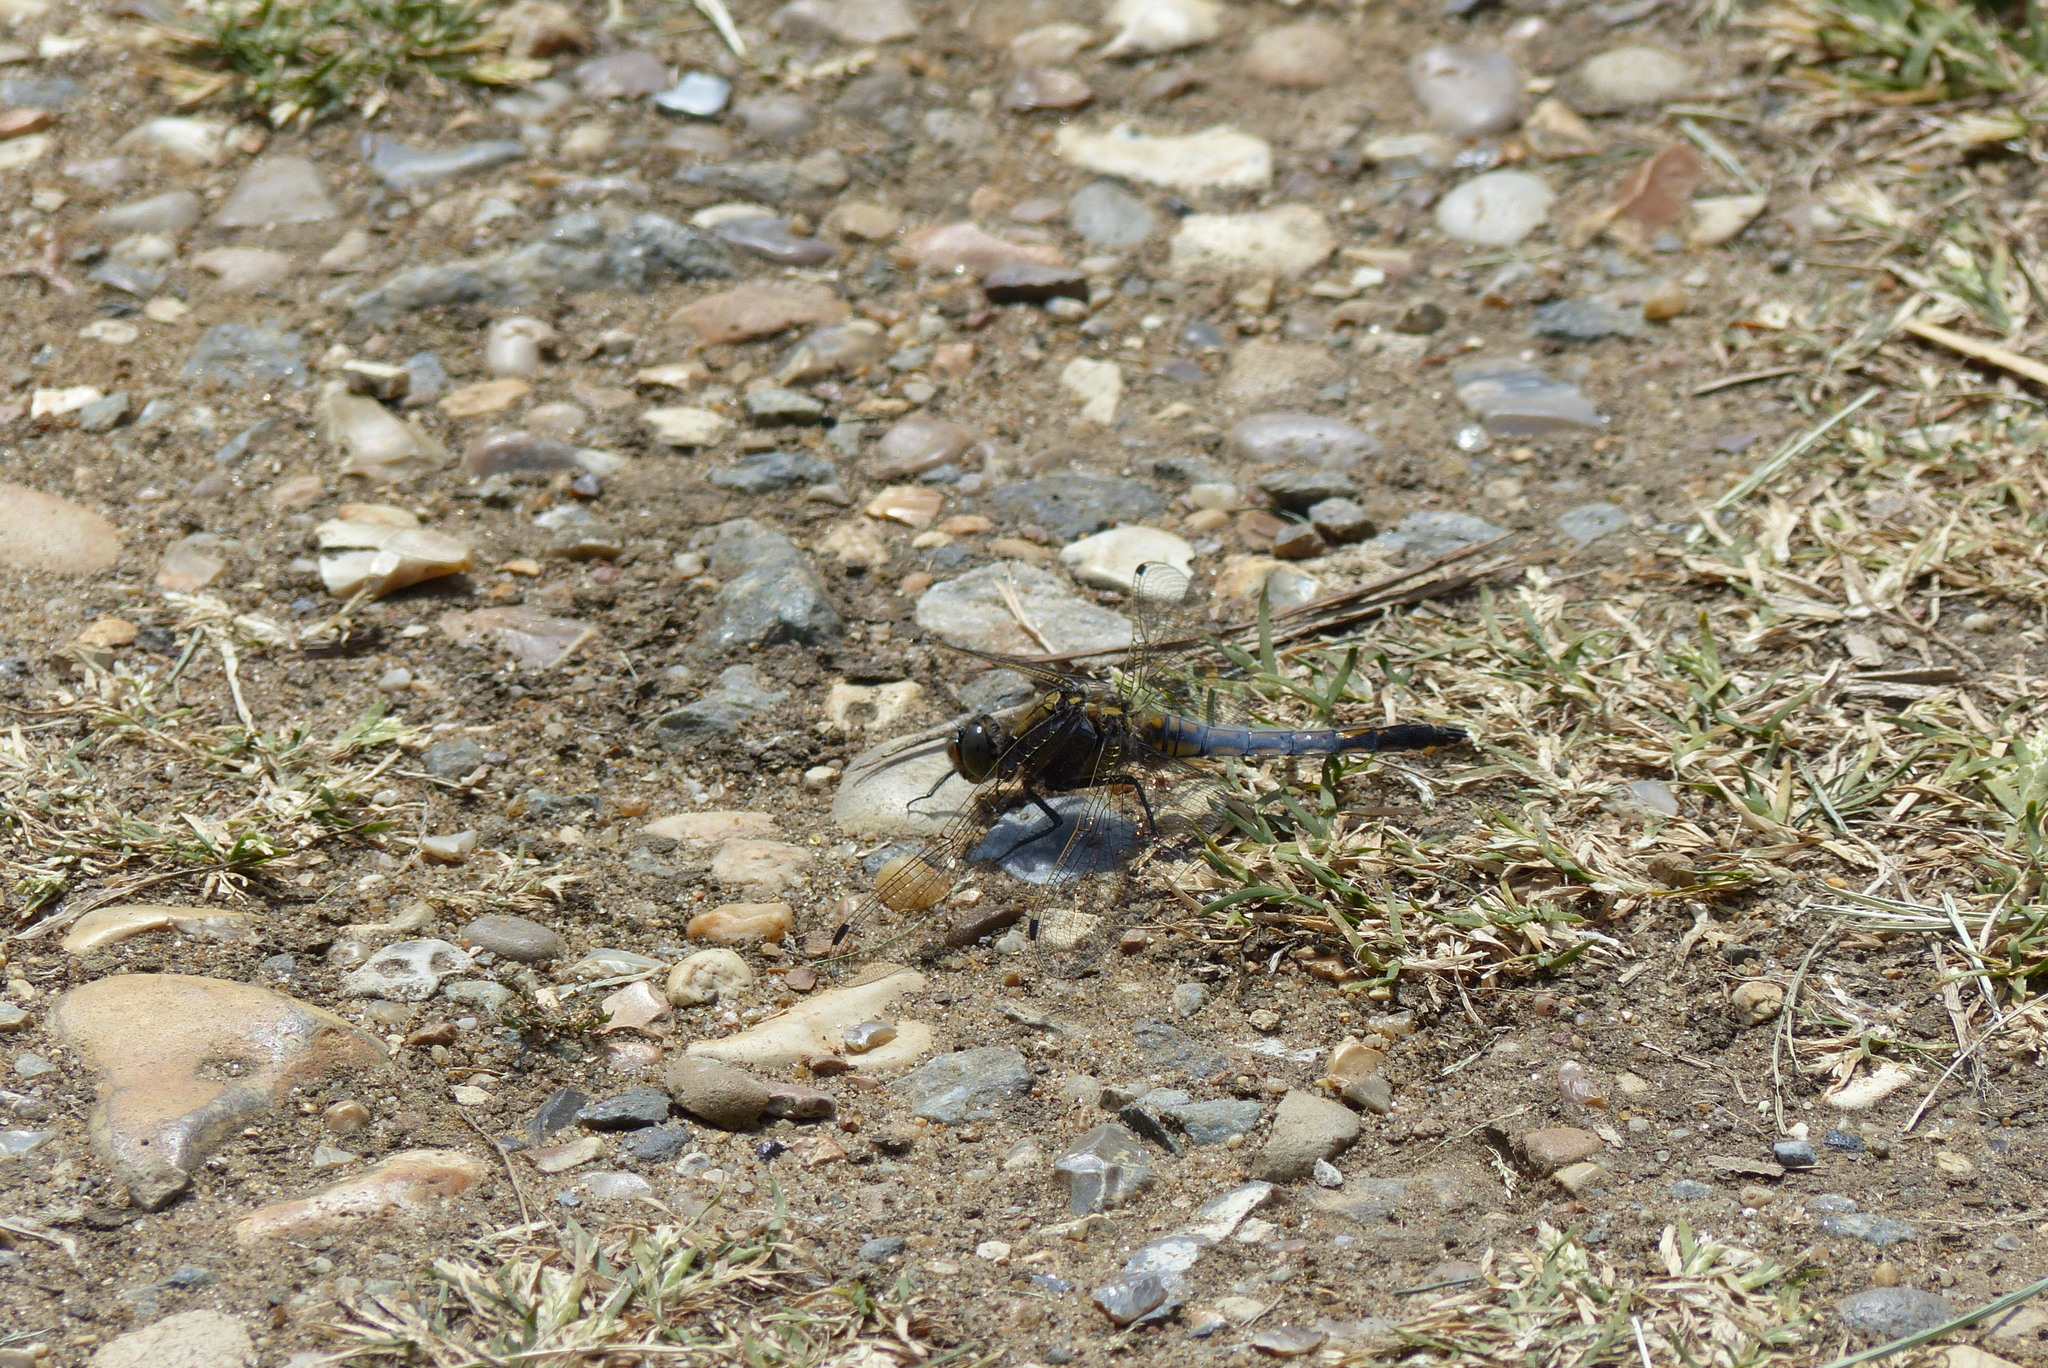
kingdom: Animalia
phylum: Arthropoda
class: Insecta
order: Odonata
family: Libellulidae
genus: Orthetrum
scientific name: Orthetrum cancellatum
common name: Black-tailed skimmer
